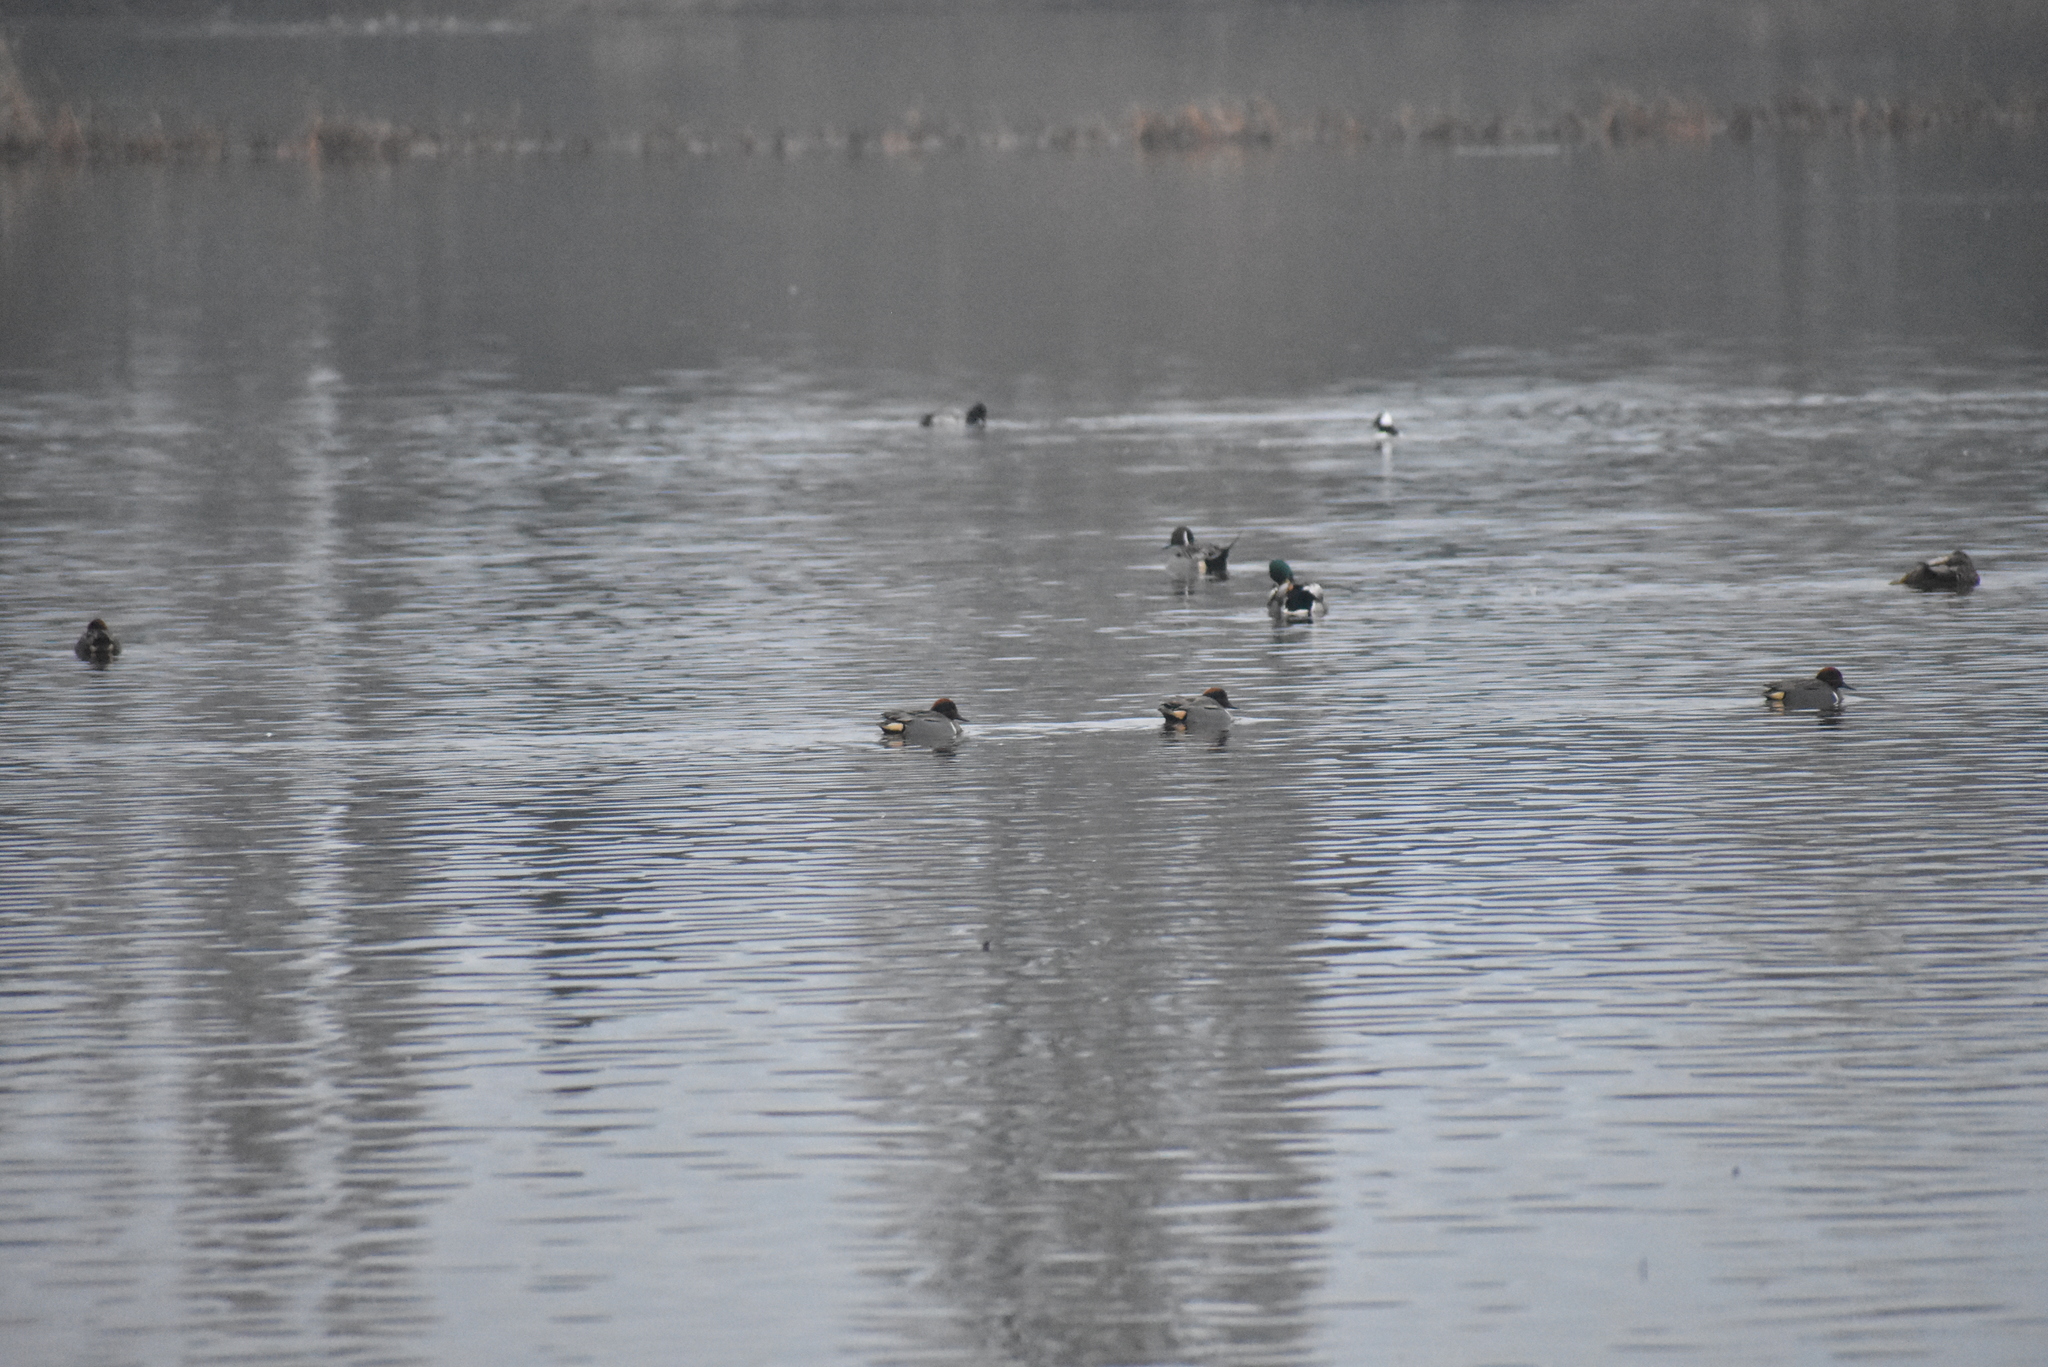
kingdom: Animalia
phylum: Chordata
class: Aves
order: Anseriformes
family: Anatidae
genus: Anas
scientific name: Anas crecca
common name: Eurasian teal
